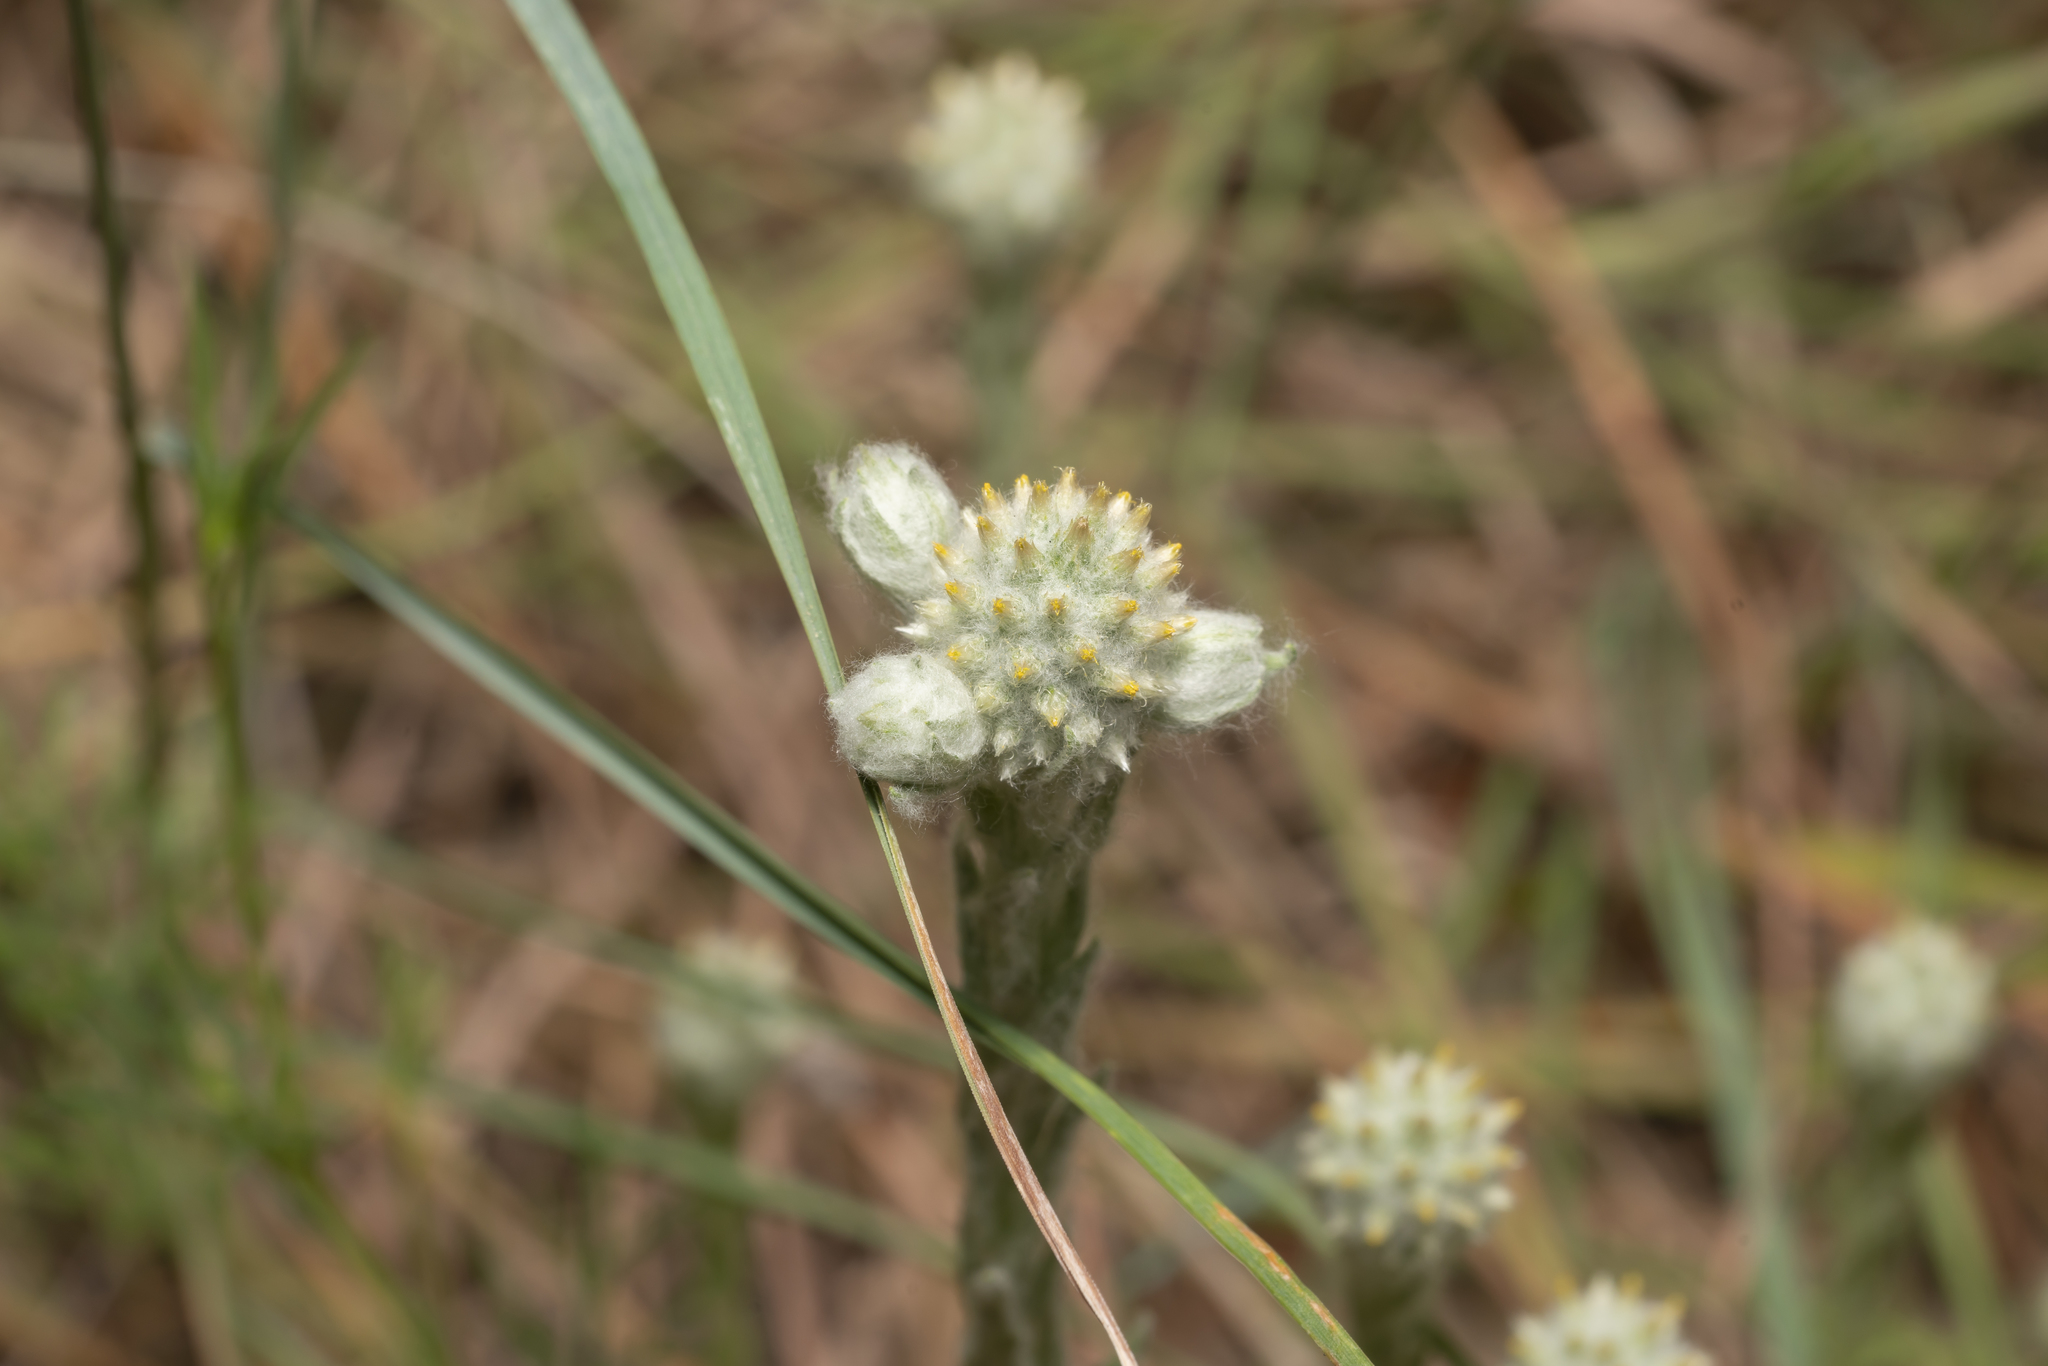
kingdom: Plantae
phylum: Tracheophyta
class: Magnoliopsida
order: Asterales
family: Asteraceae
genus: Filago
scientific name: Filago eriocephala
